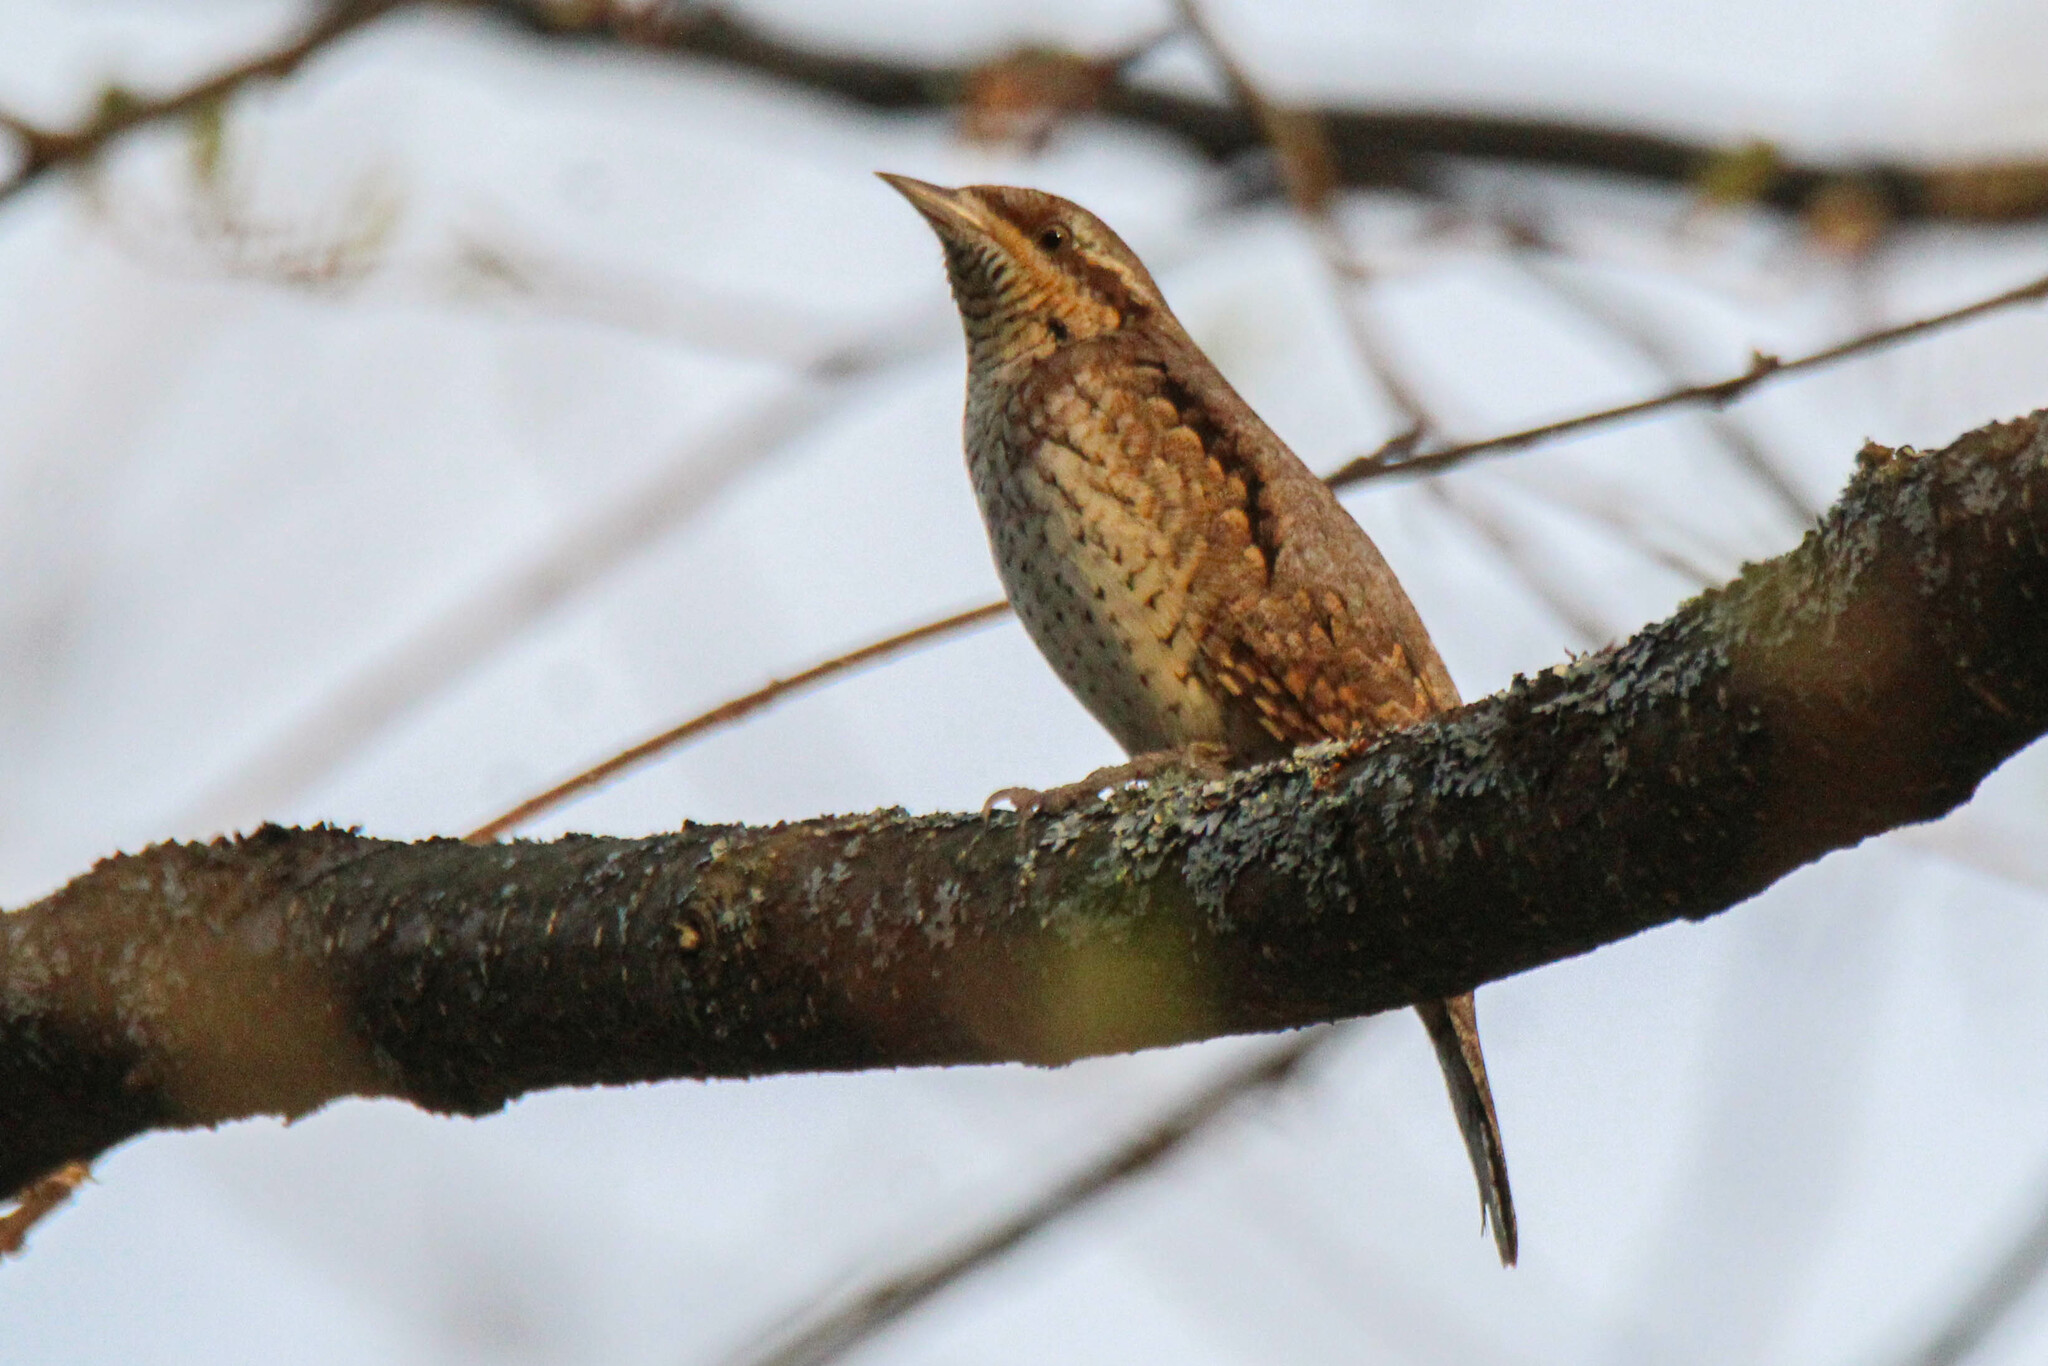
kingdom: Animalia
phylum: Chordata
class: Aves
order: Piciformes
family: Picidae
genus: Jynx
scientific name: Jynx torquilla
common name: Eurasian wryneck
